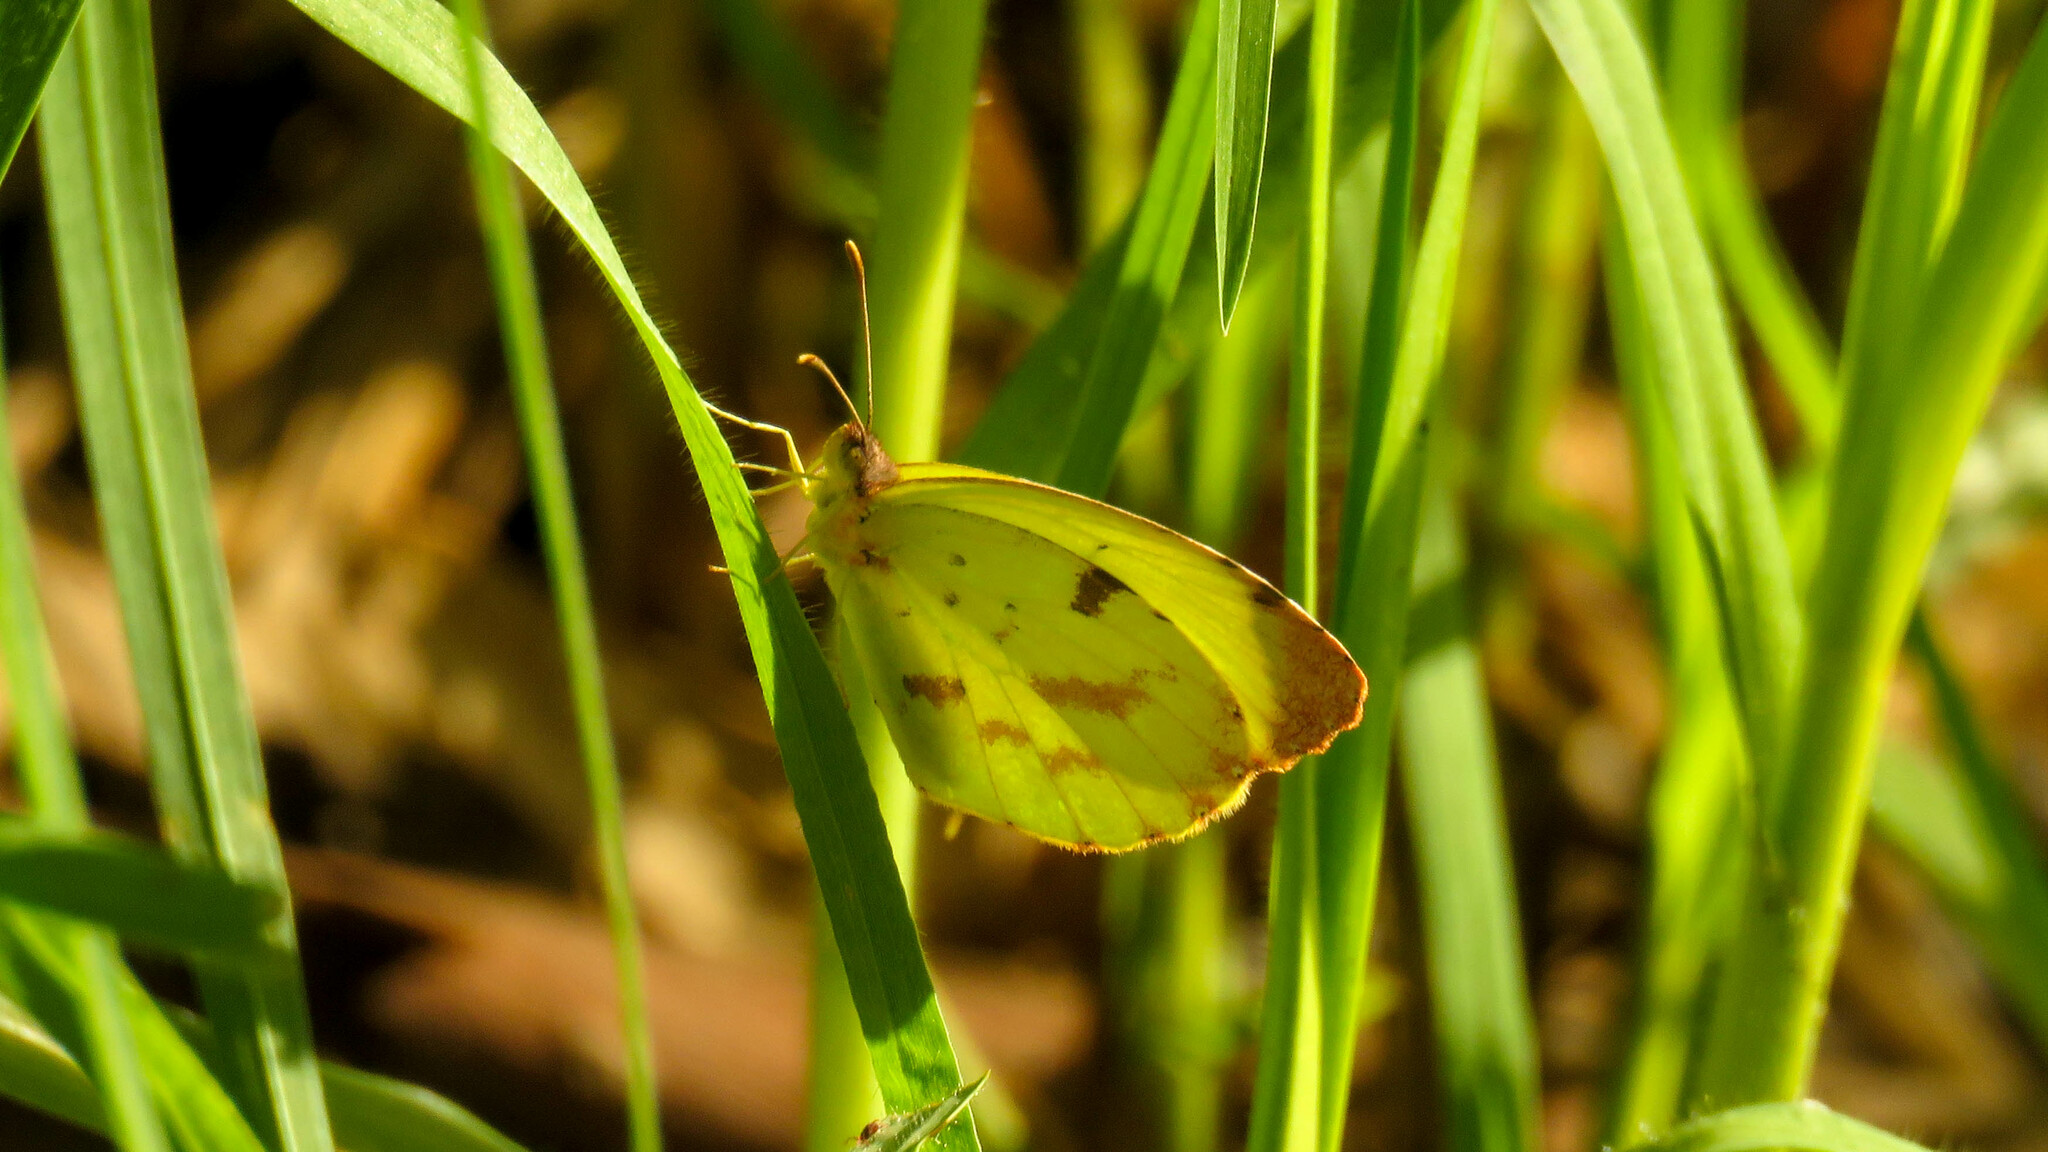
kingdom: Animalia
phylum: Arthropoda
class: Insecta
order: Lepidoptera
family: Pieridae
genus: Teriocolias
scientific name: Teriocolias
